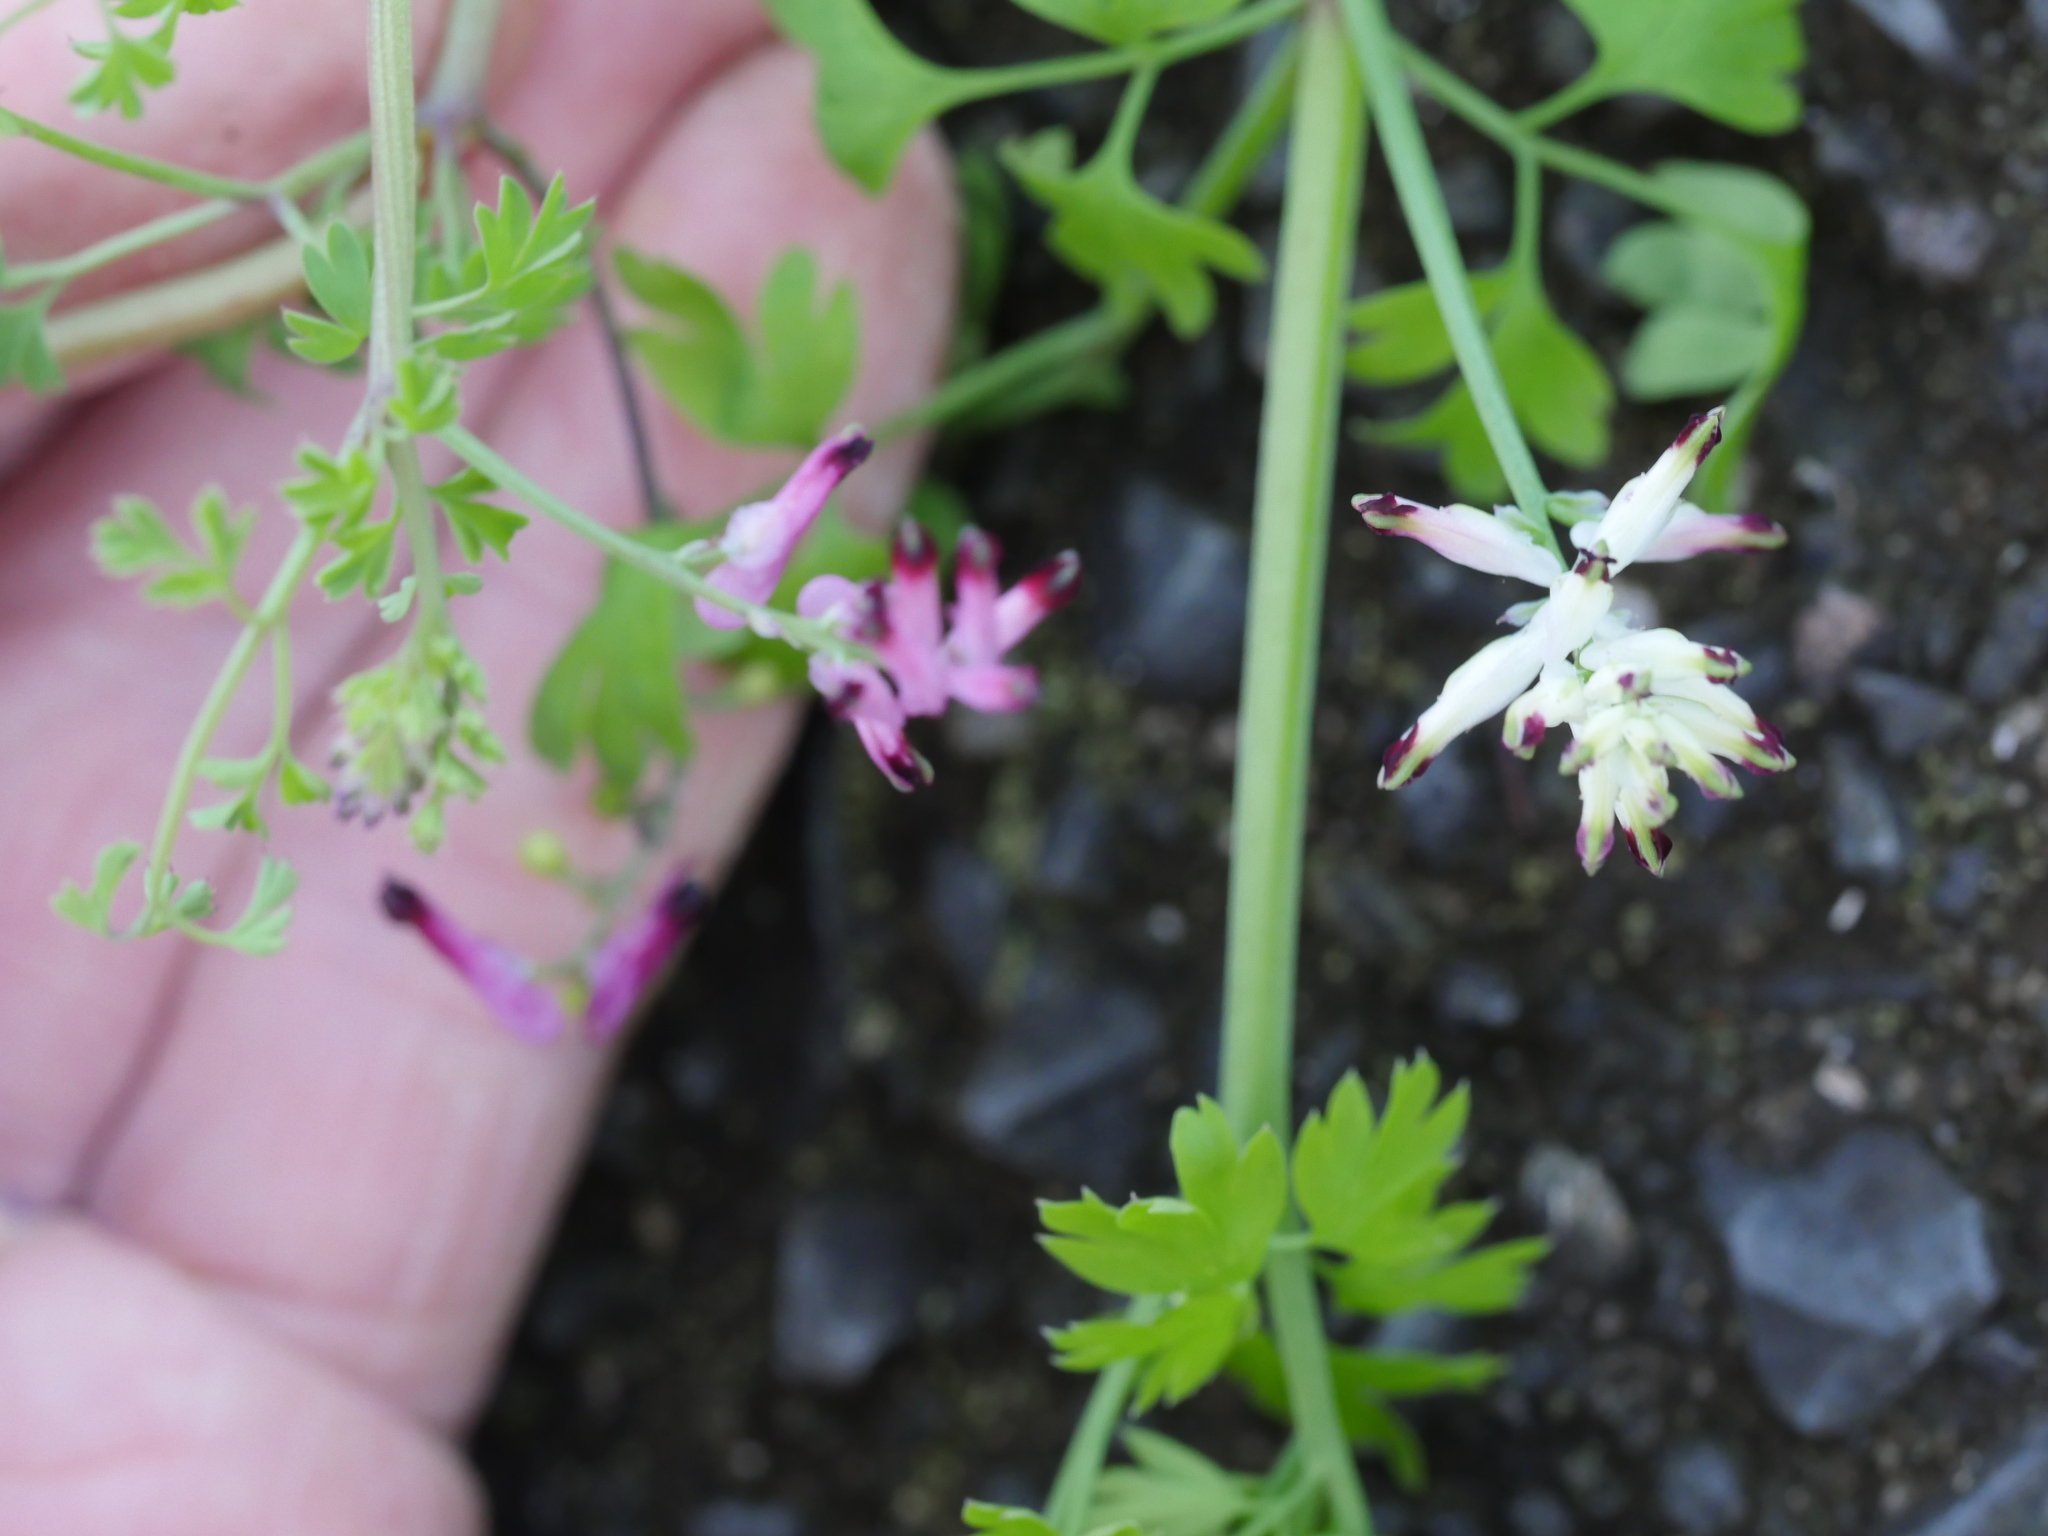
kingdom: Plantae
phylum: Tracheophyta
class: Magnoliopsida
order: Ranunculales
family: Papaveraceae
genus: Fumaria
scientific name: Fumaria capreolata
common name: White ramping-fumitory
